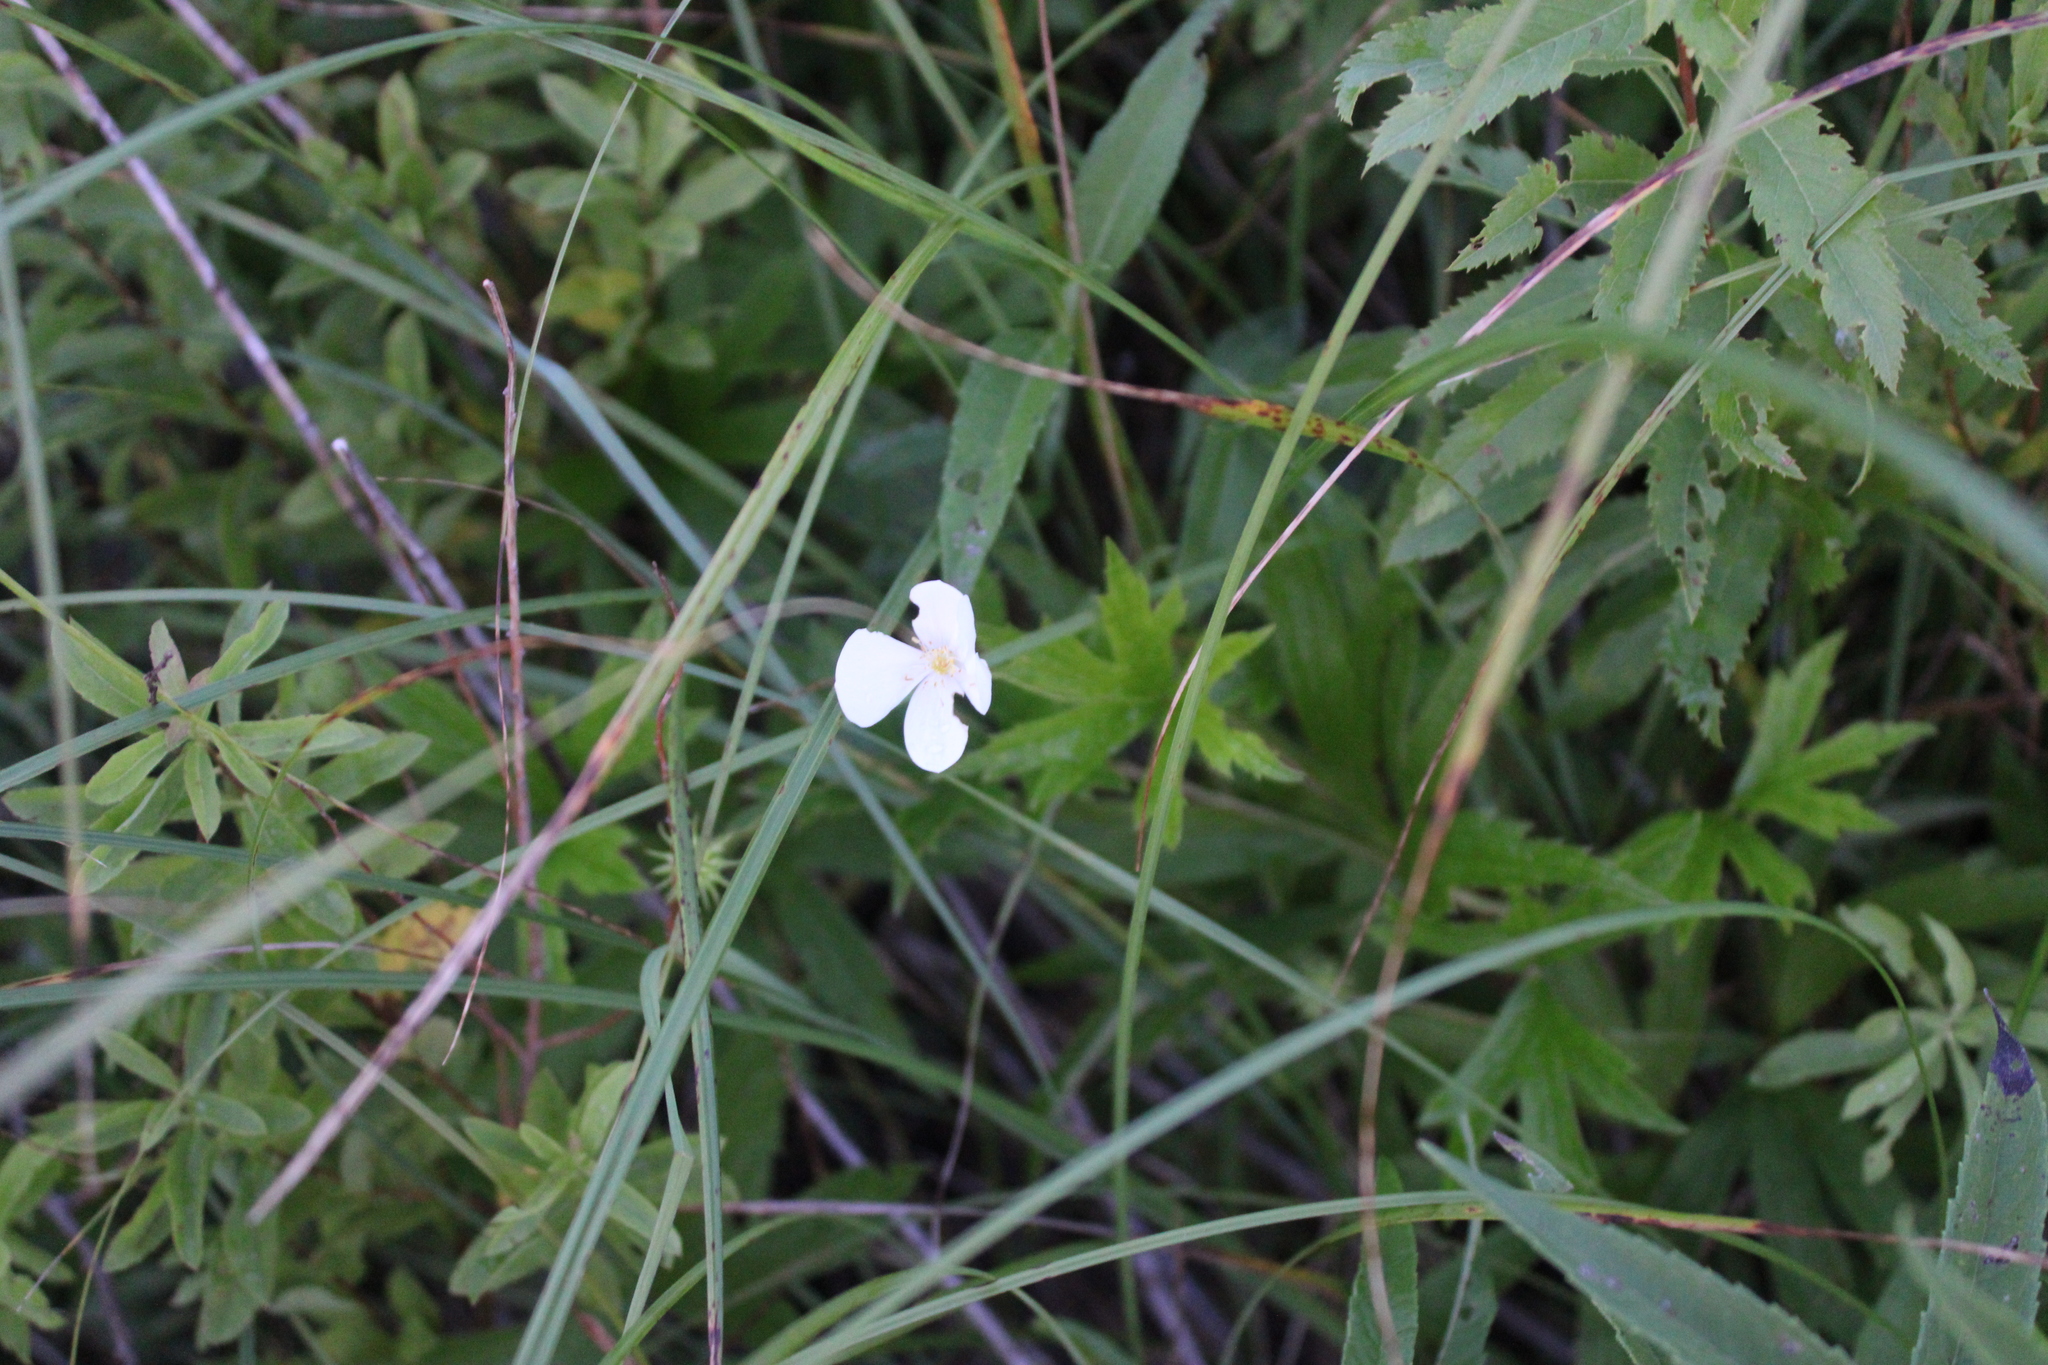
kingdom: Plantae
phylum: Tracheophyta
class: Magnoliopsida
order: Ranunculales
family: Ranunculaceae
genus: Anemonastrum
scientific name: Anemonastrum canadense
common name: Canada anemone
